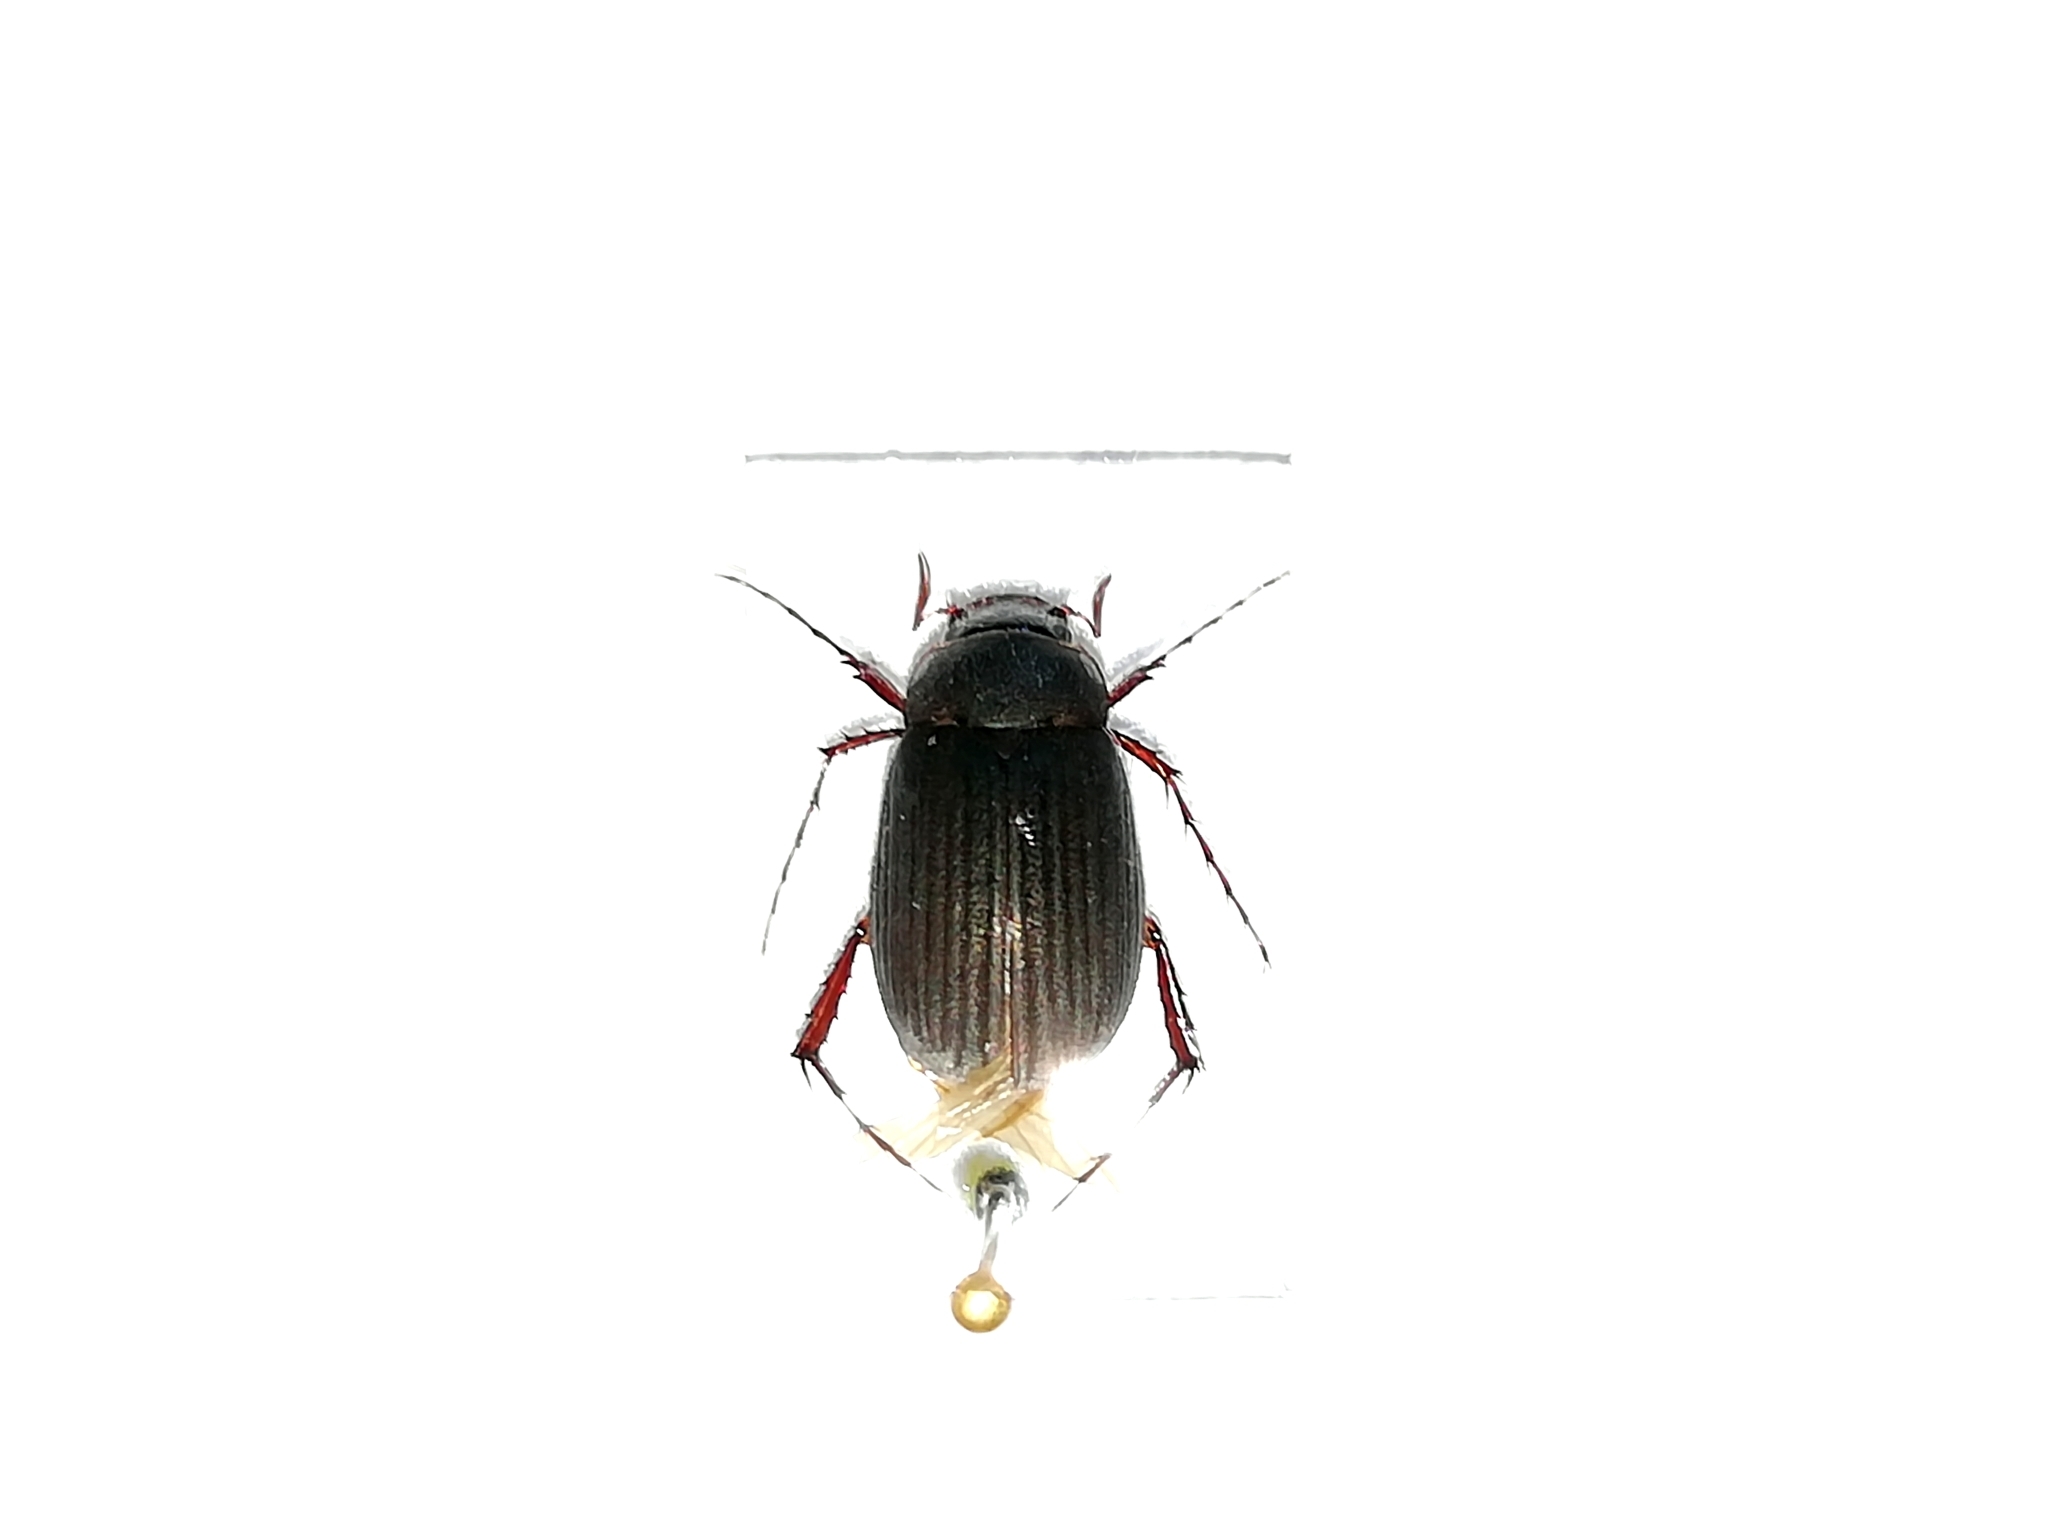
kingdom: Animalia
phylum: Arthropoda
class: Insecta
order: Coleoptera
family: Scarabaeidae
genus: Maladera
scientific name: Maladera holosericea
